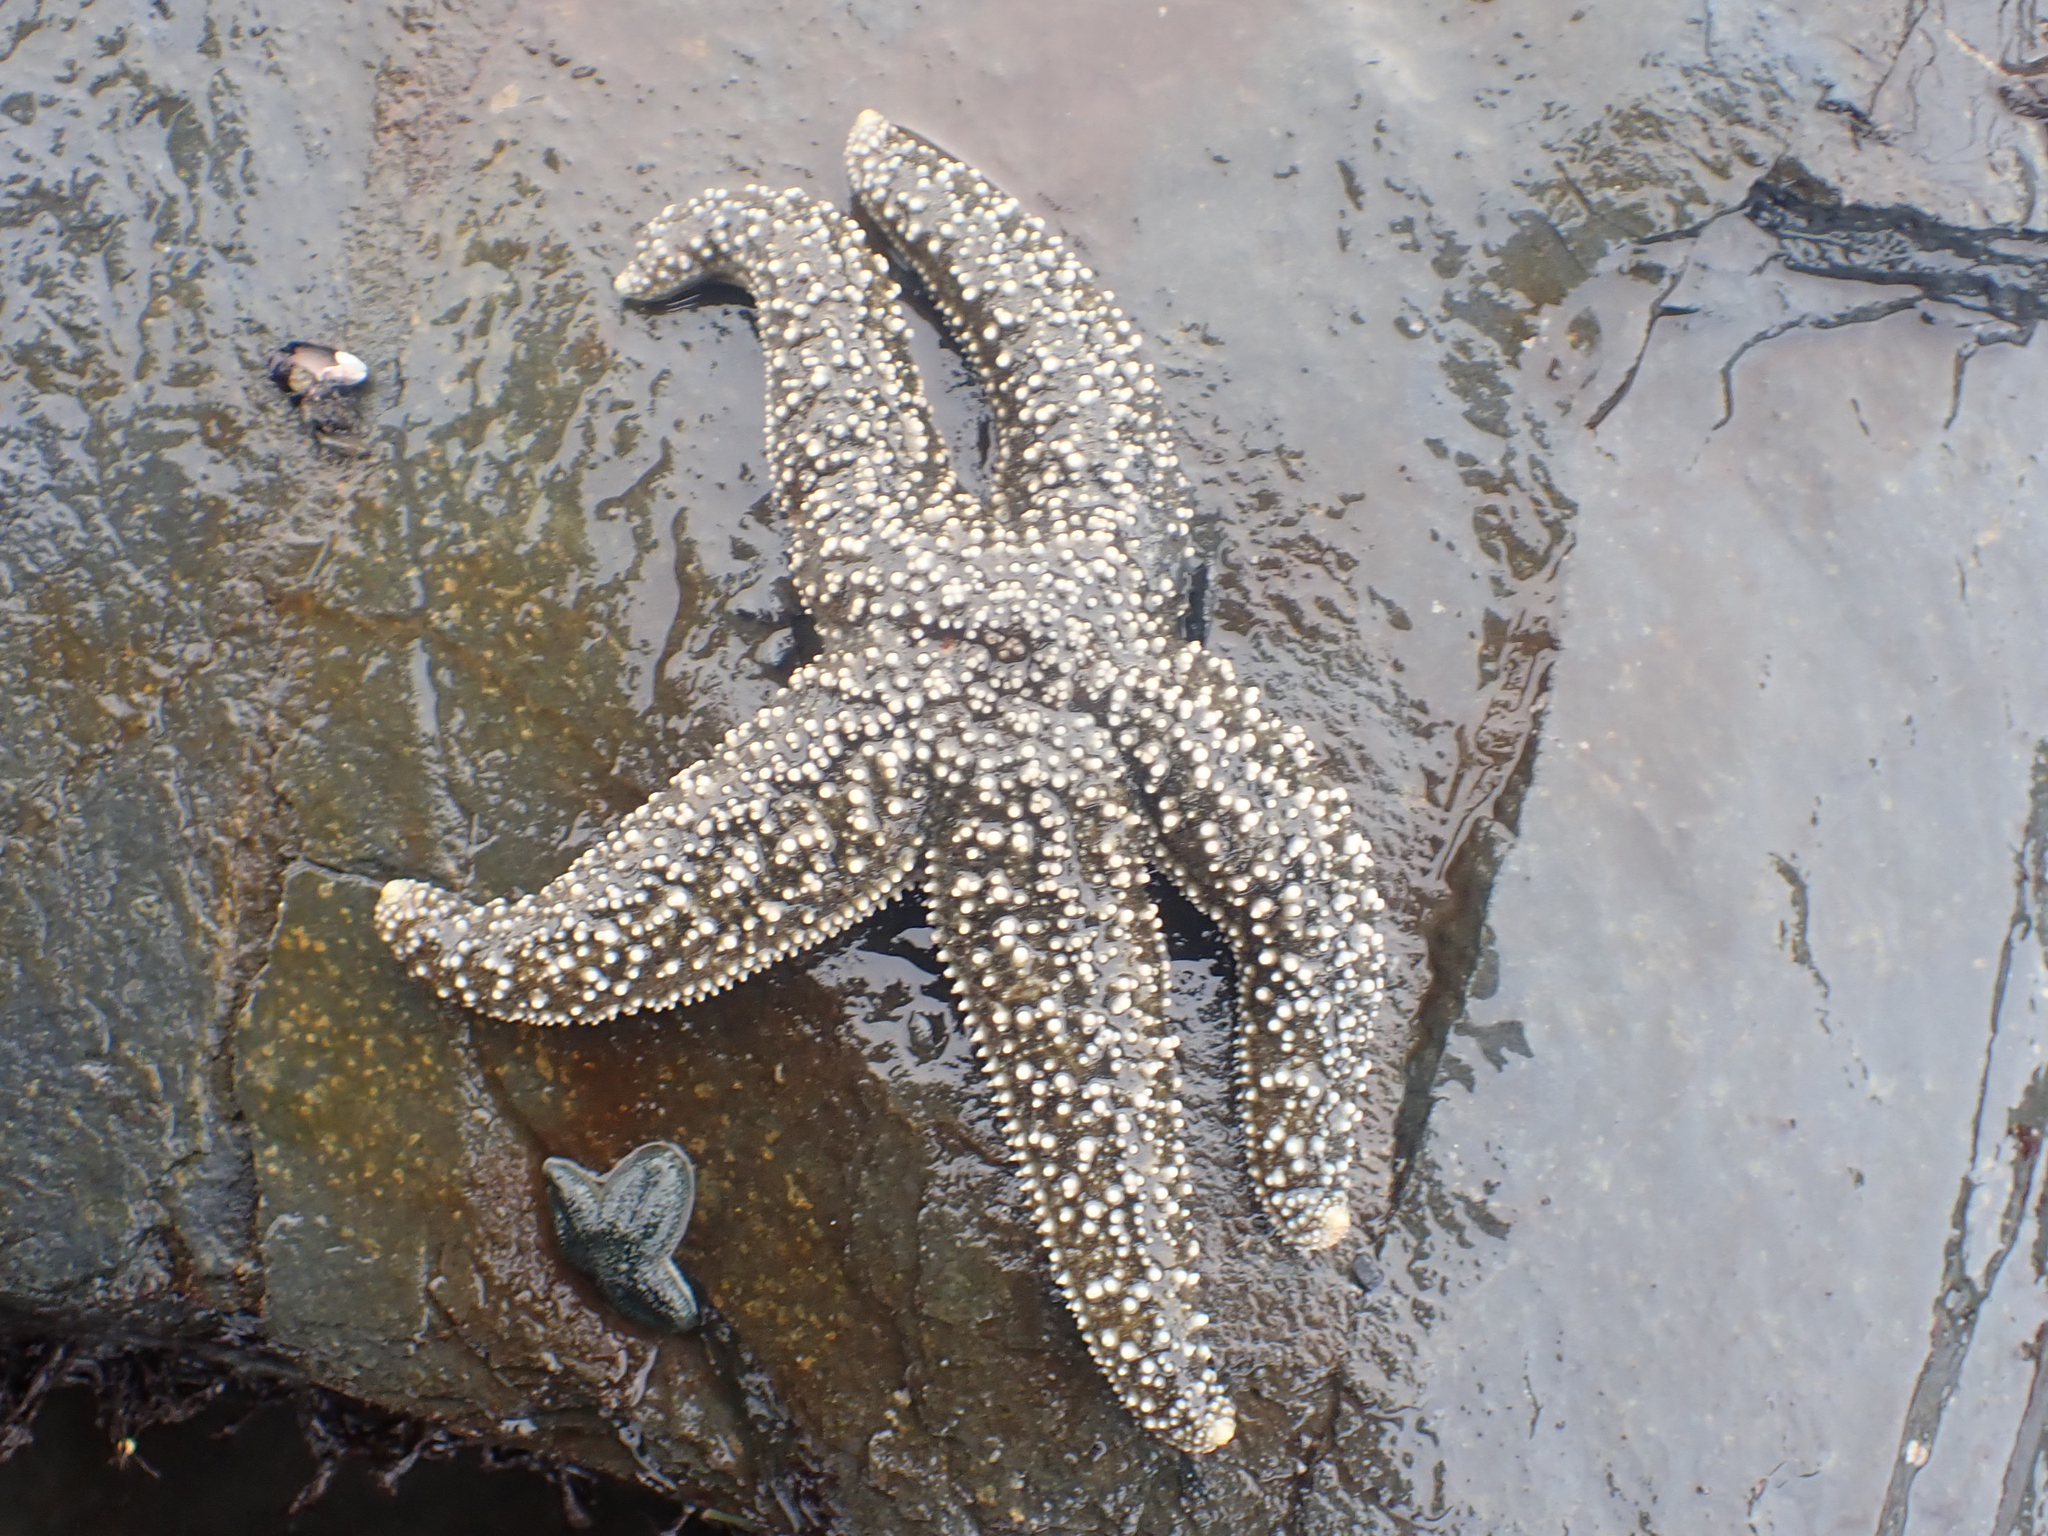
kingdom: Animalia
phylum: Echinodermata
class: Asteroidea
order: Forcipulatida
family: Asteriidae
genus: Evasterias
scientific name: Evasterias troschelii
